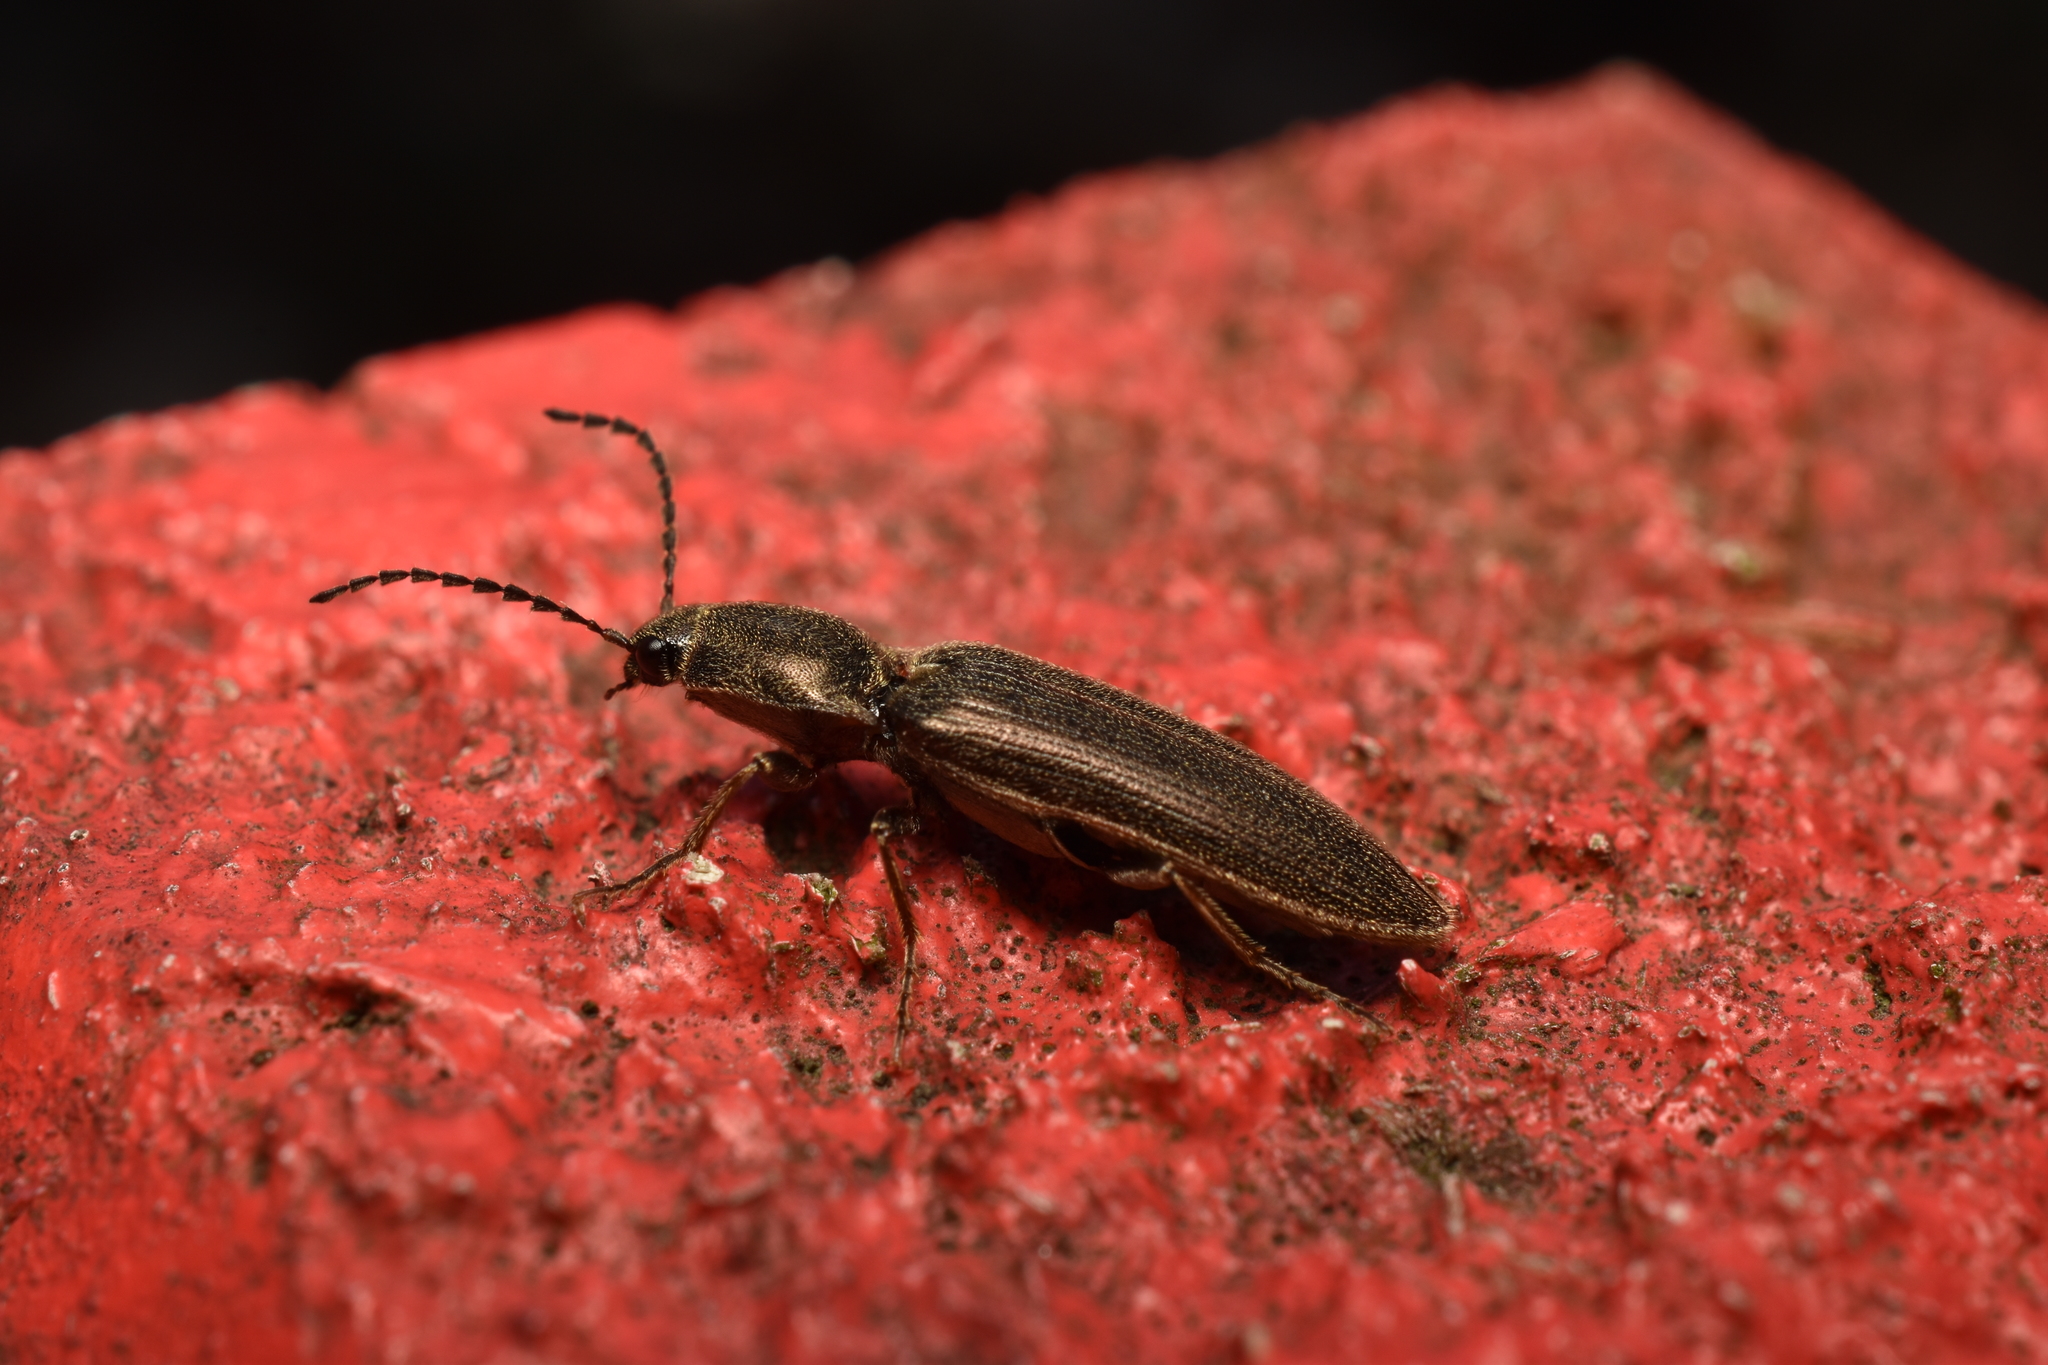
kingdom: Animalia
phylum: Arthropoda
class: Insecta
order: Coleoptera
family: Elateridae
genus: Sylvanelater
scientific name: Sylvanelater cylindriformis
